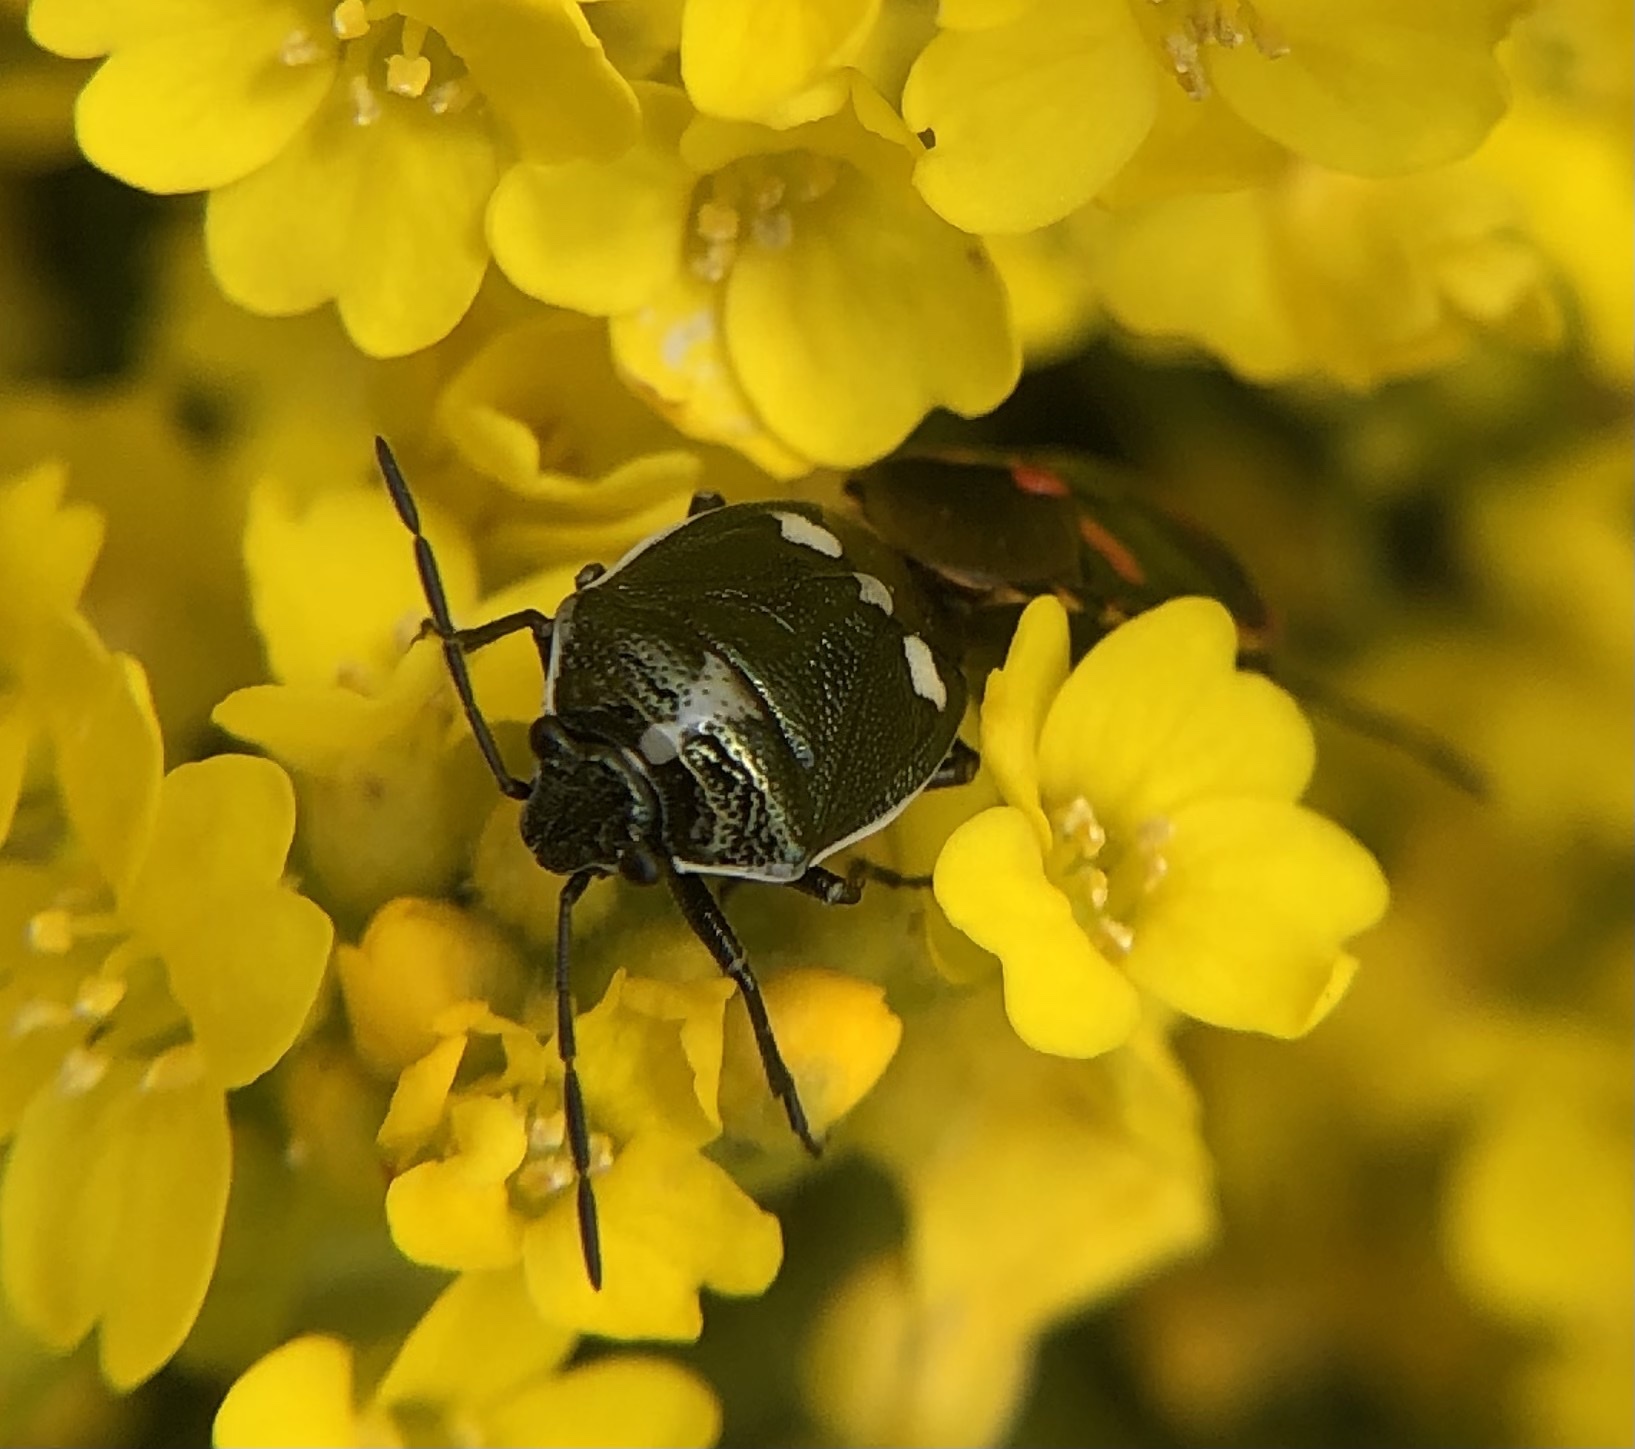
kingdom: Animalia
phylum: Arthropoda
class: Insecta
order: Hemiptera
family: Pentatomidae
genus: Eurydema
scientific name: Eurydema oleracea
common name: Cabbage bug
